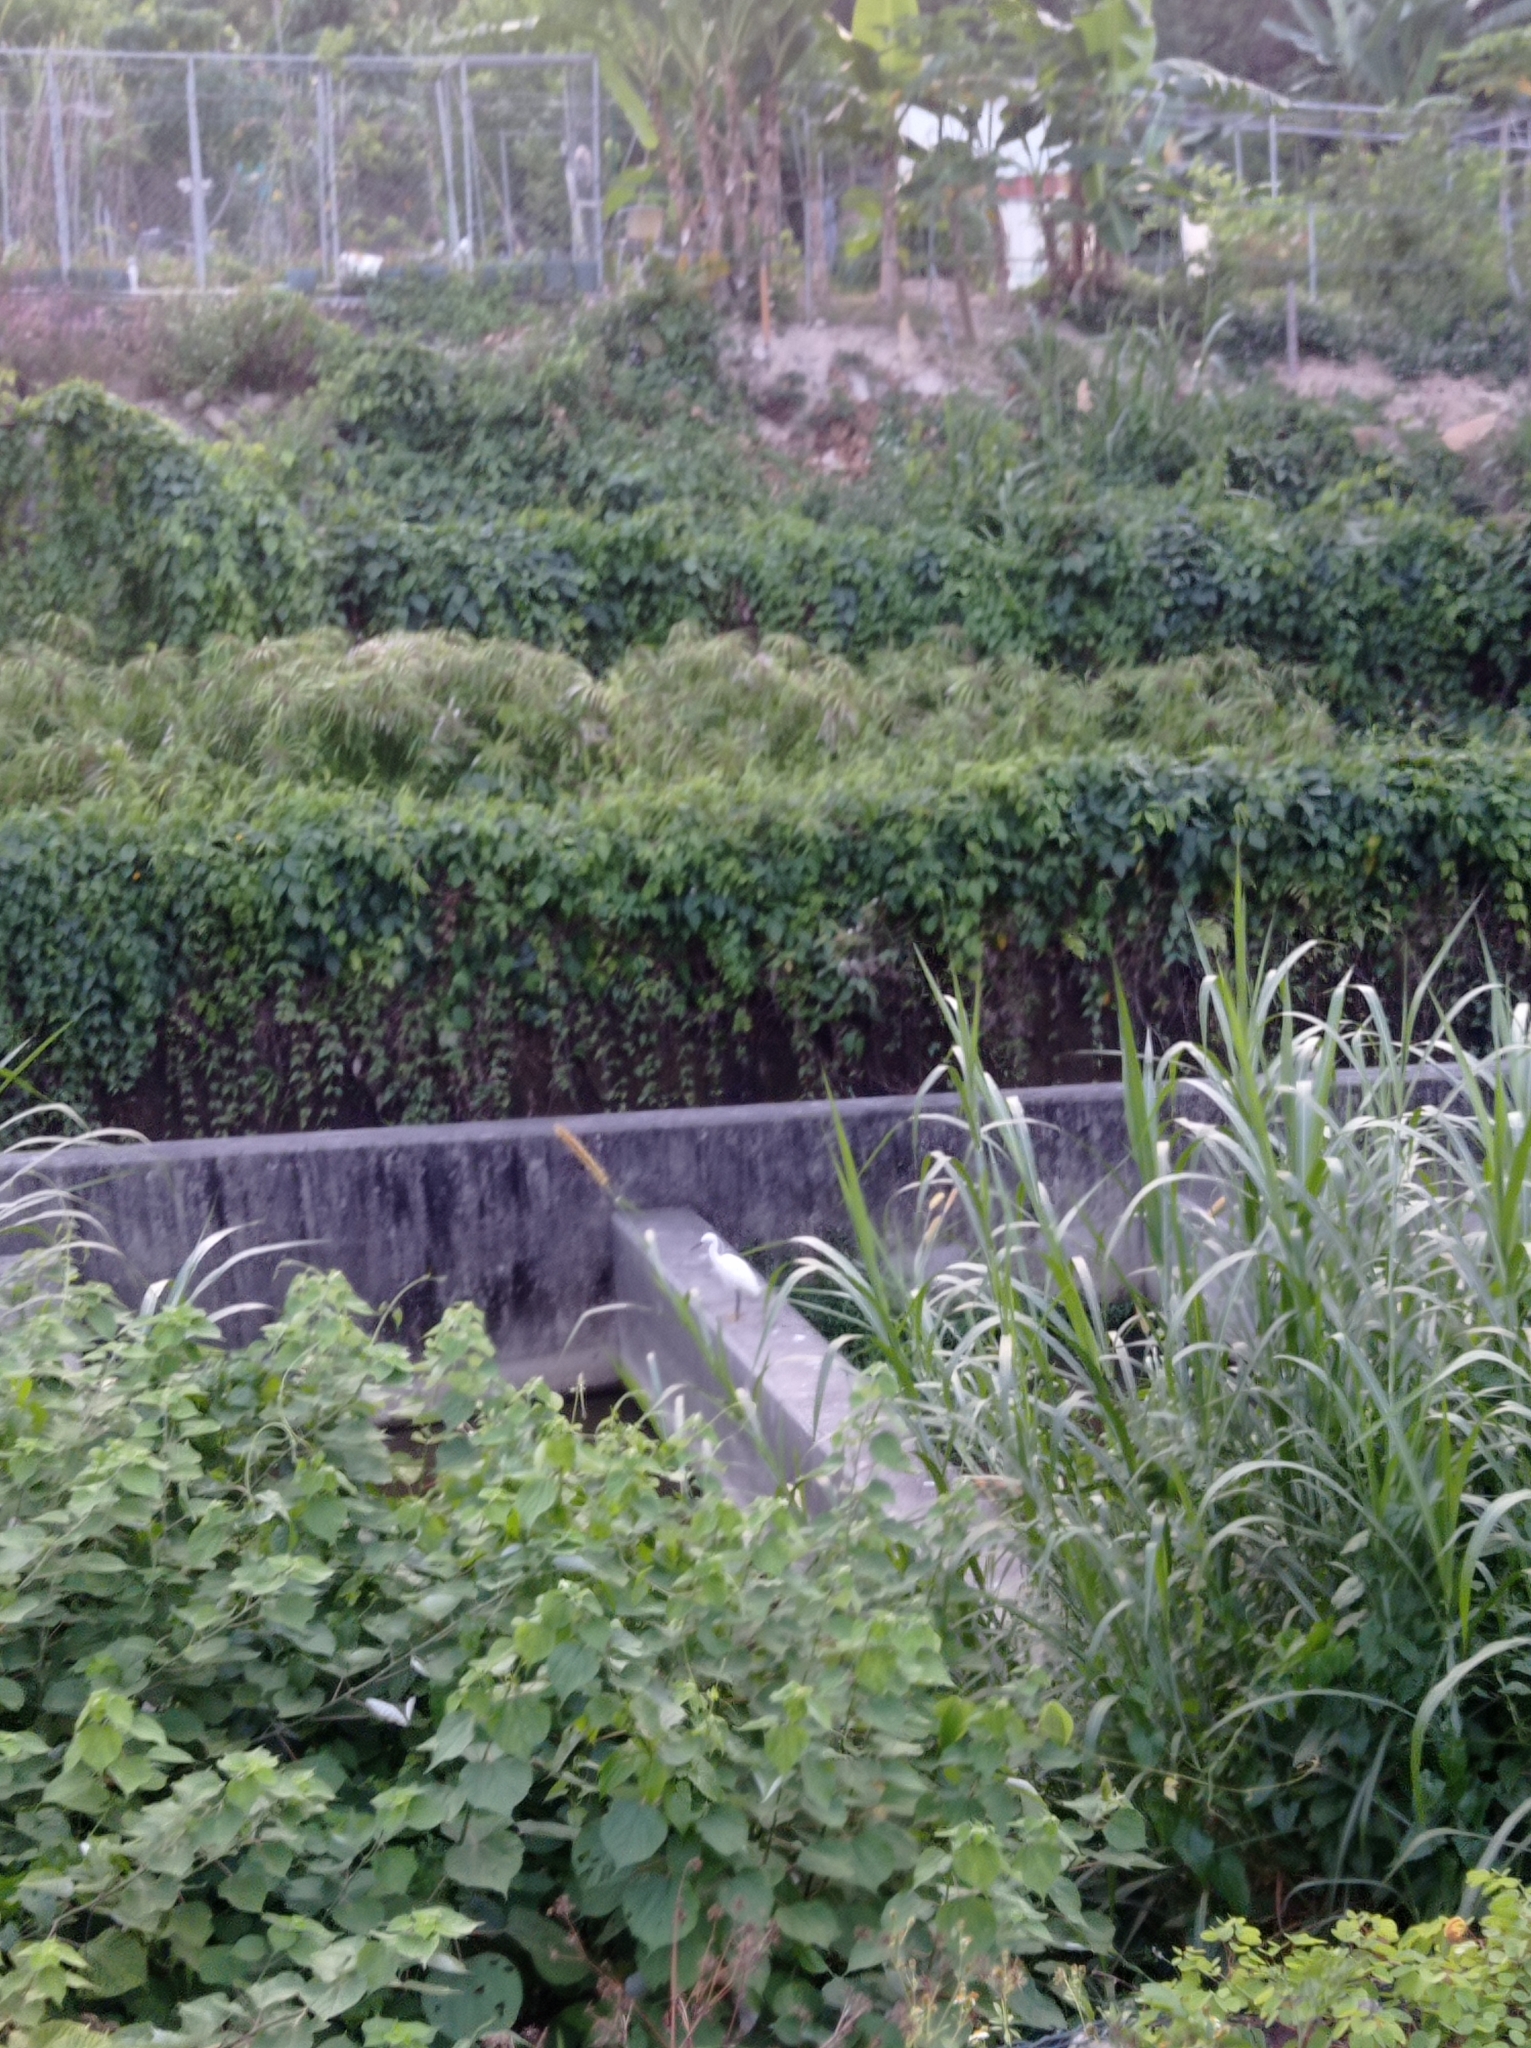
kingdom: Animalia
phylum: Chordata
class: Aves
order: Pelecaniformes
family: Ardeidae
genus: Egretta
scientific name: Egretta garzetta
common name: Little egret
